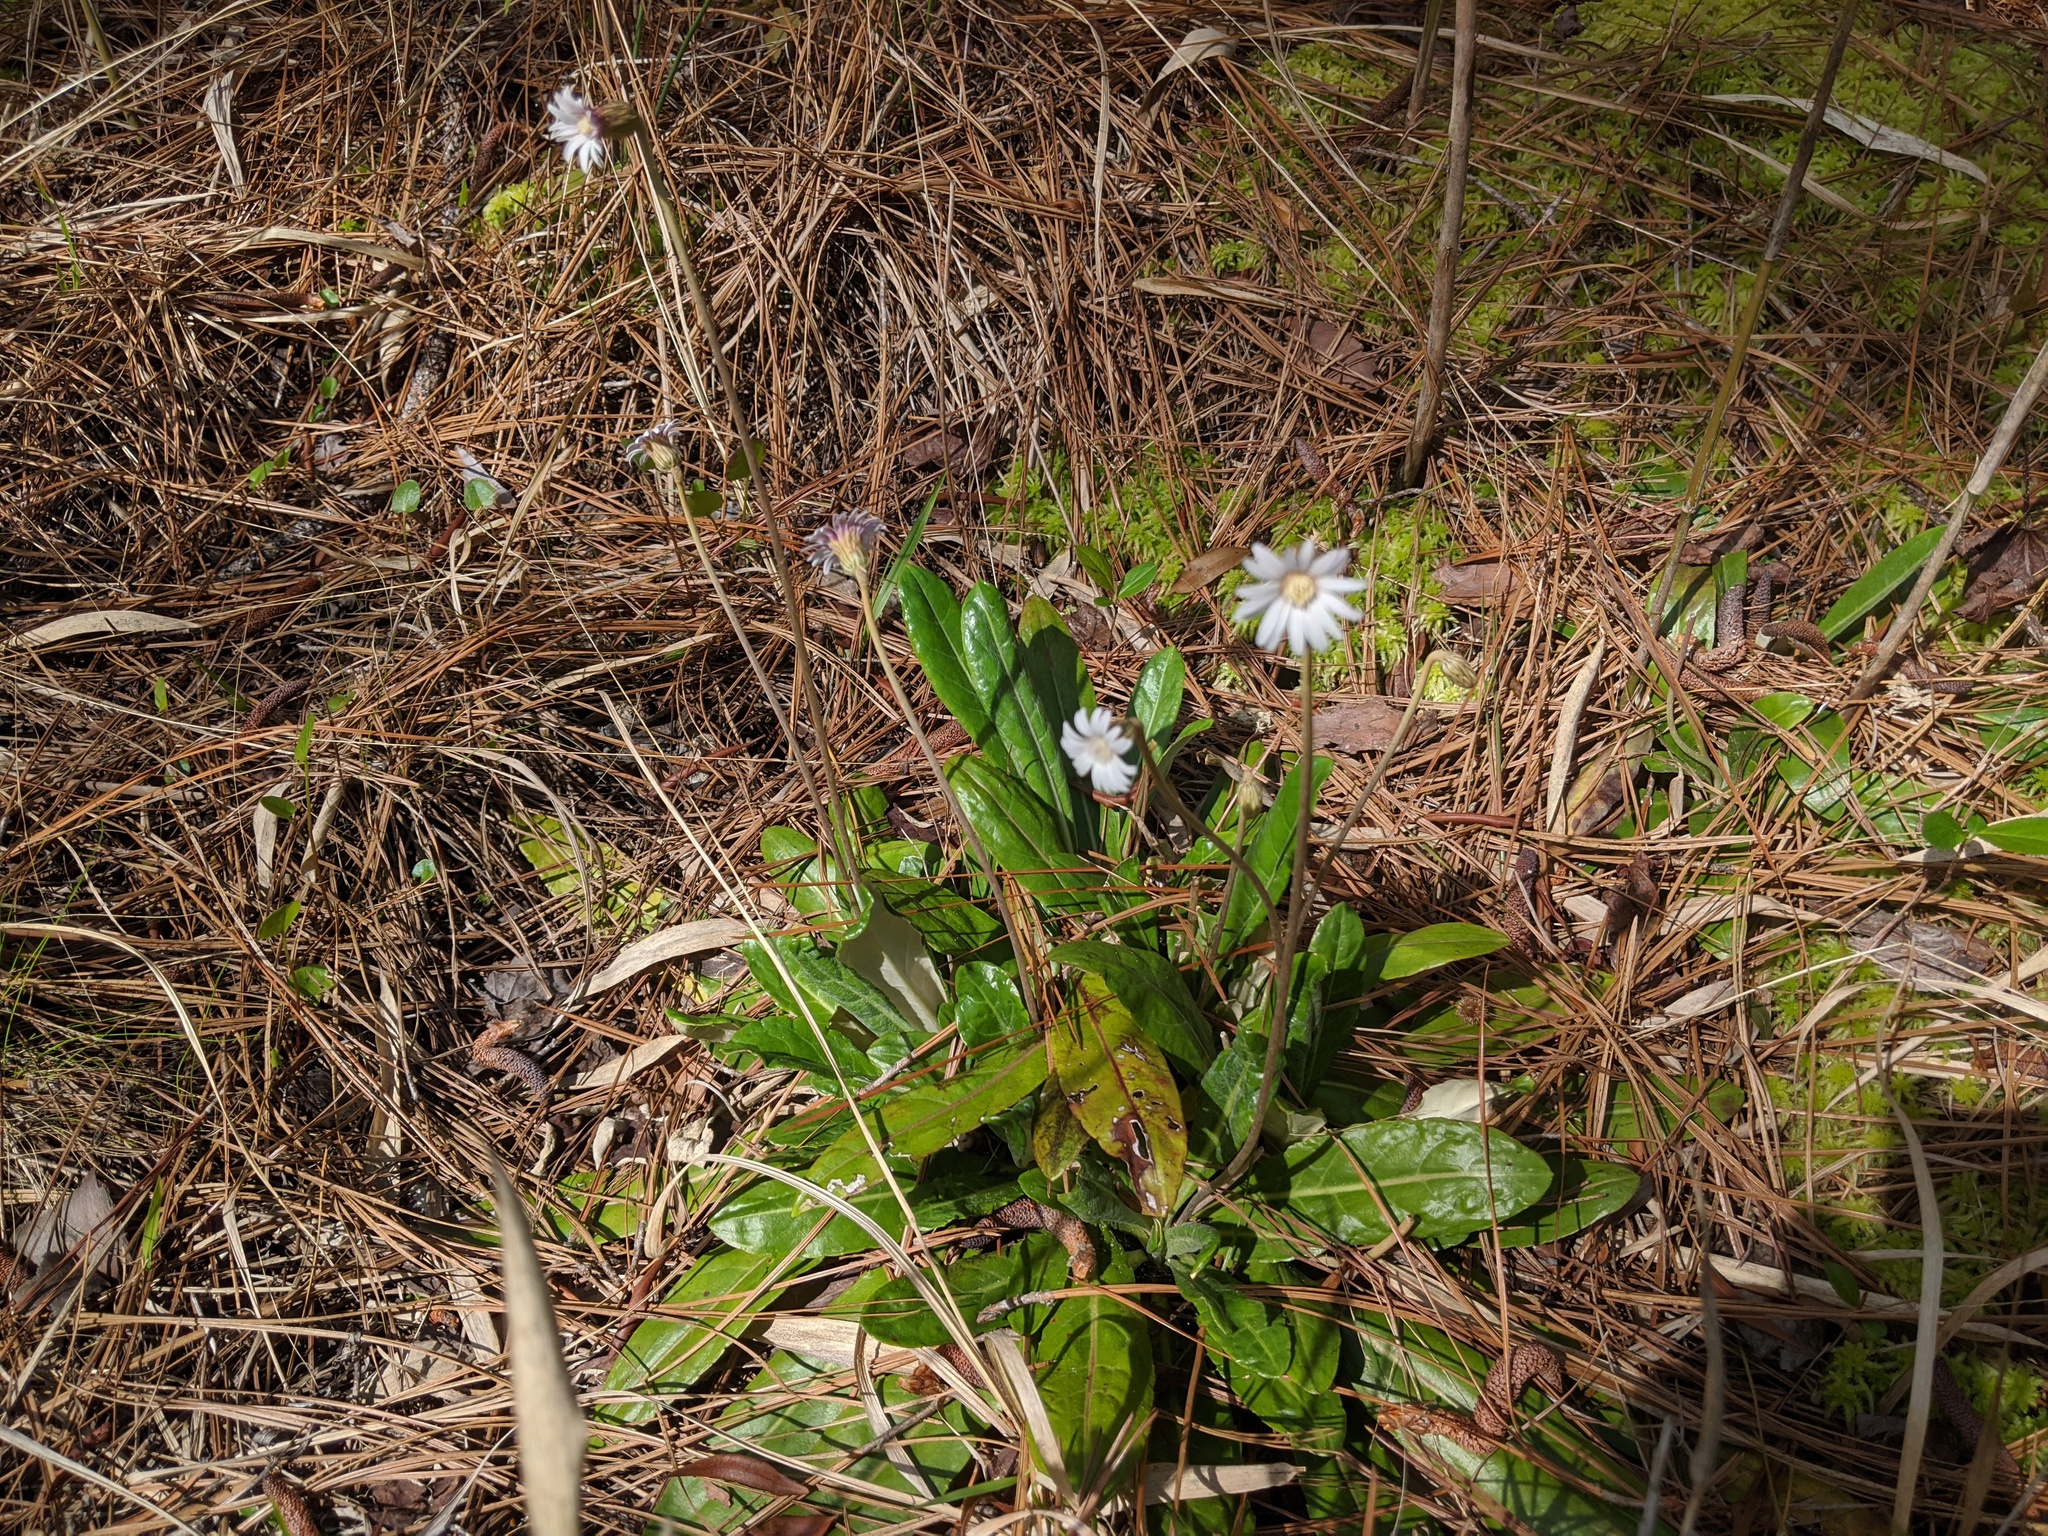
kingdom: Plantae
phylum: Tracheophyta
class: Magnoliopsida
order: Asterales
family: Asteraceae
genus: Chaptalia
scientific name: Chaptalia tomentosa
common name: Woolly sunbonnet
